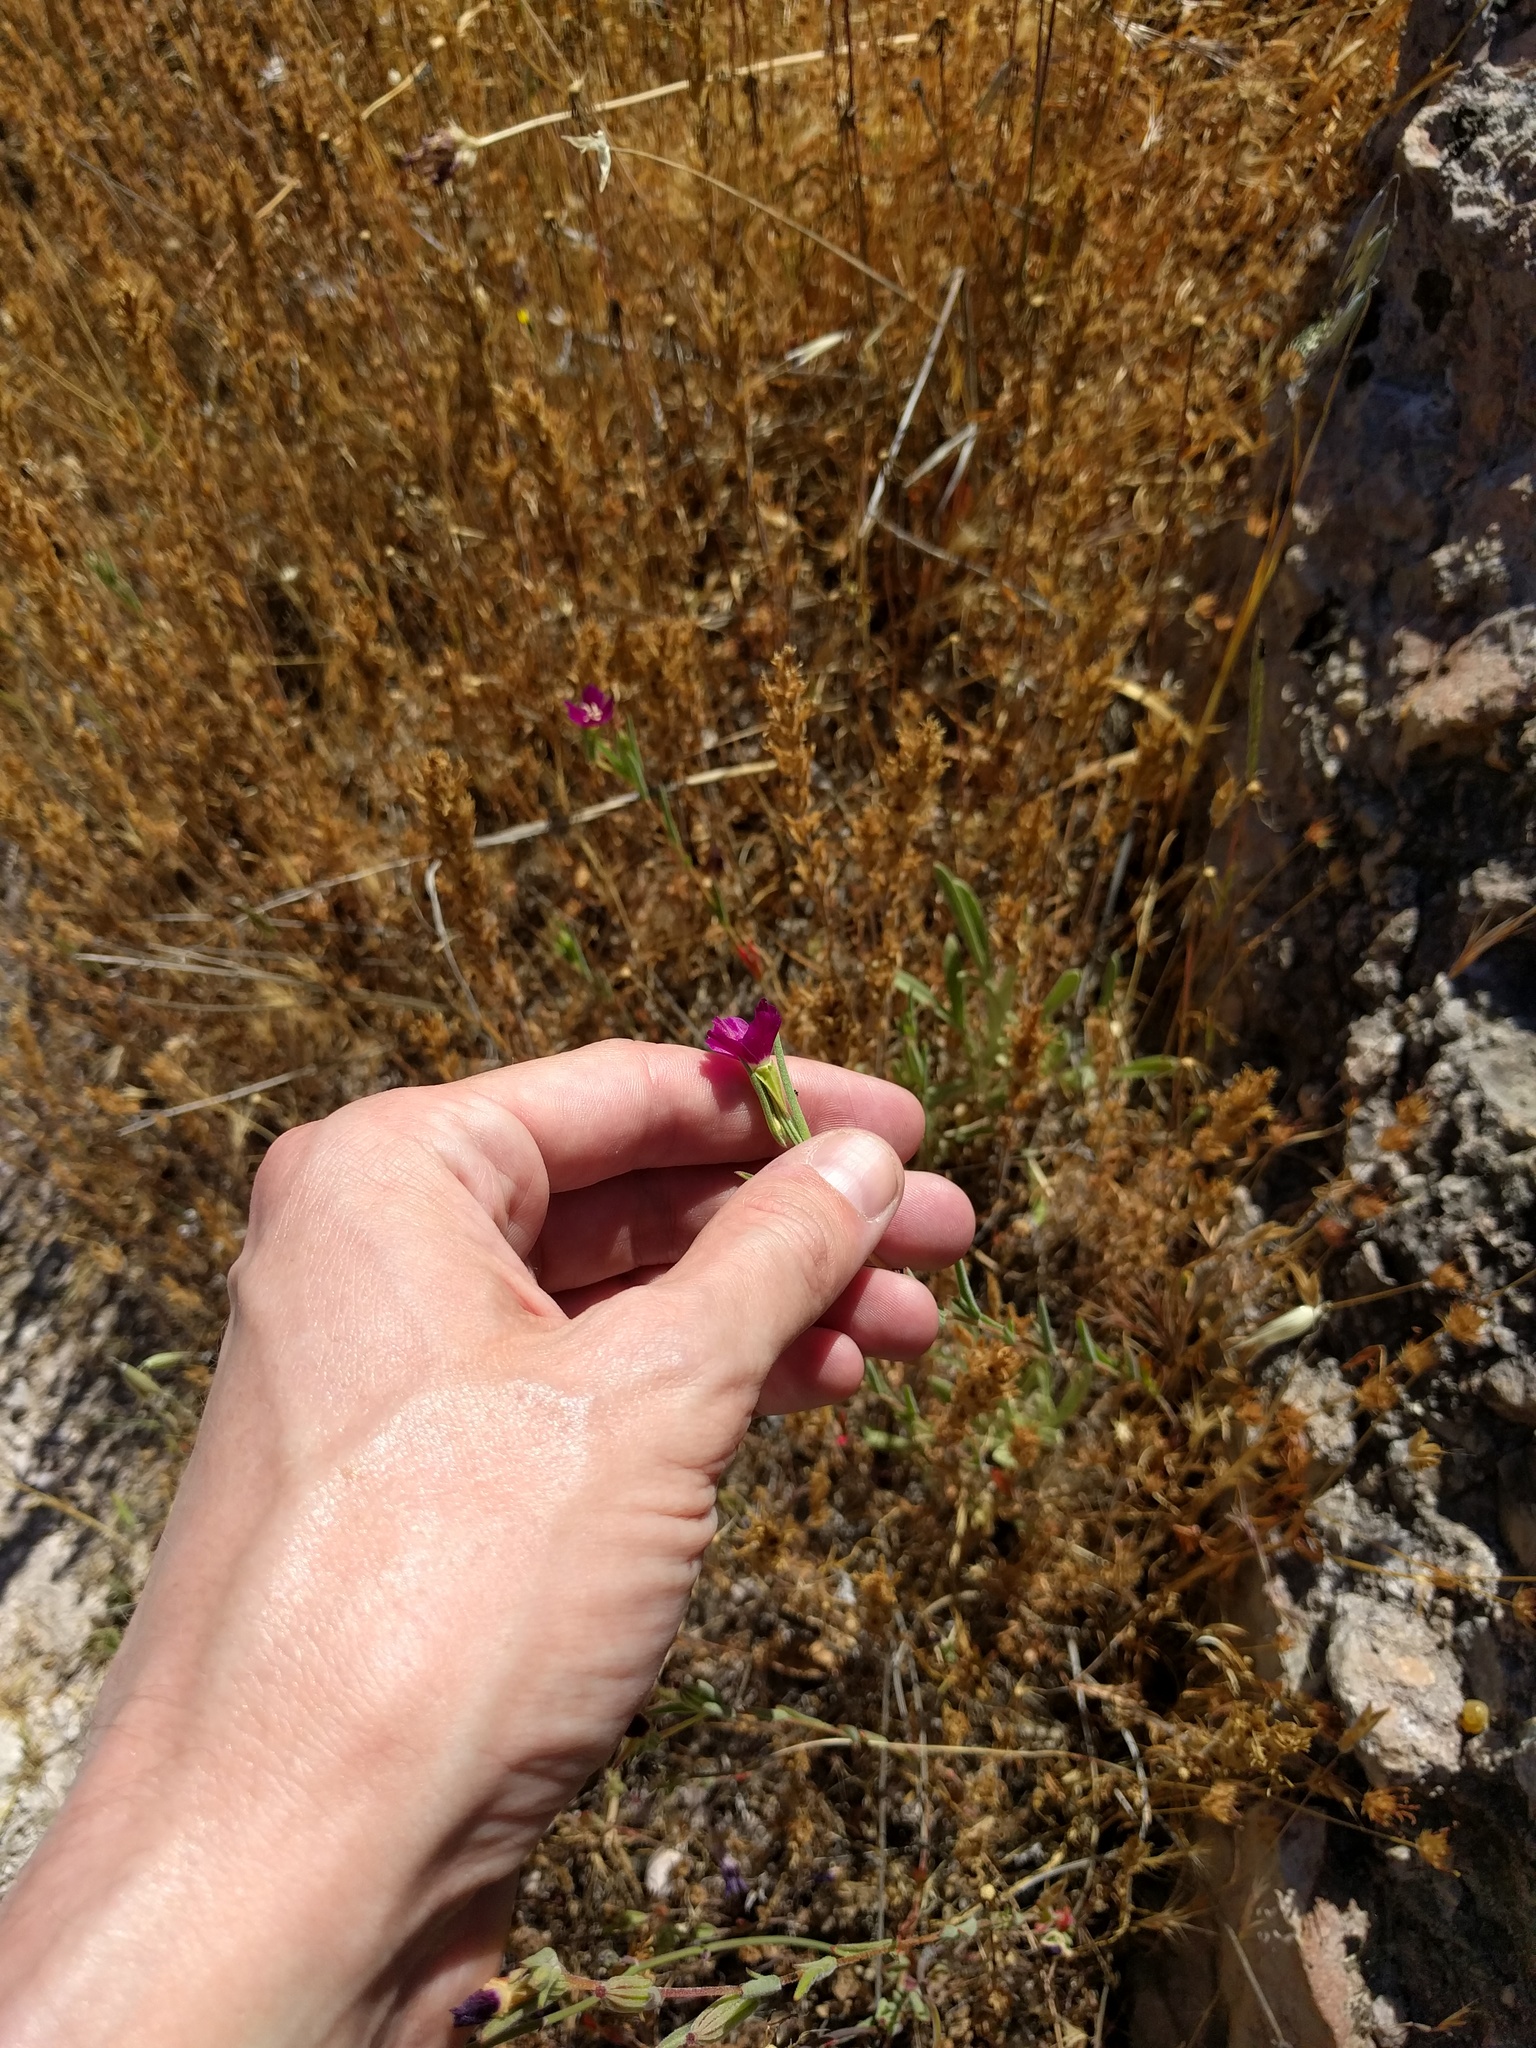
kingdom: Plantae
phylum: Tracheophyta
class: Magnoliopsida
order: Myrtales
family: Onagraceae
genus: Clarkia
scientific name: Clarkia purpurea
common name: Purple clarkia
